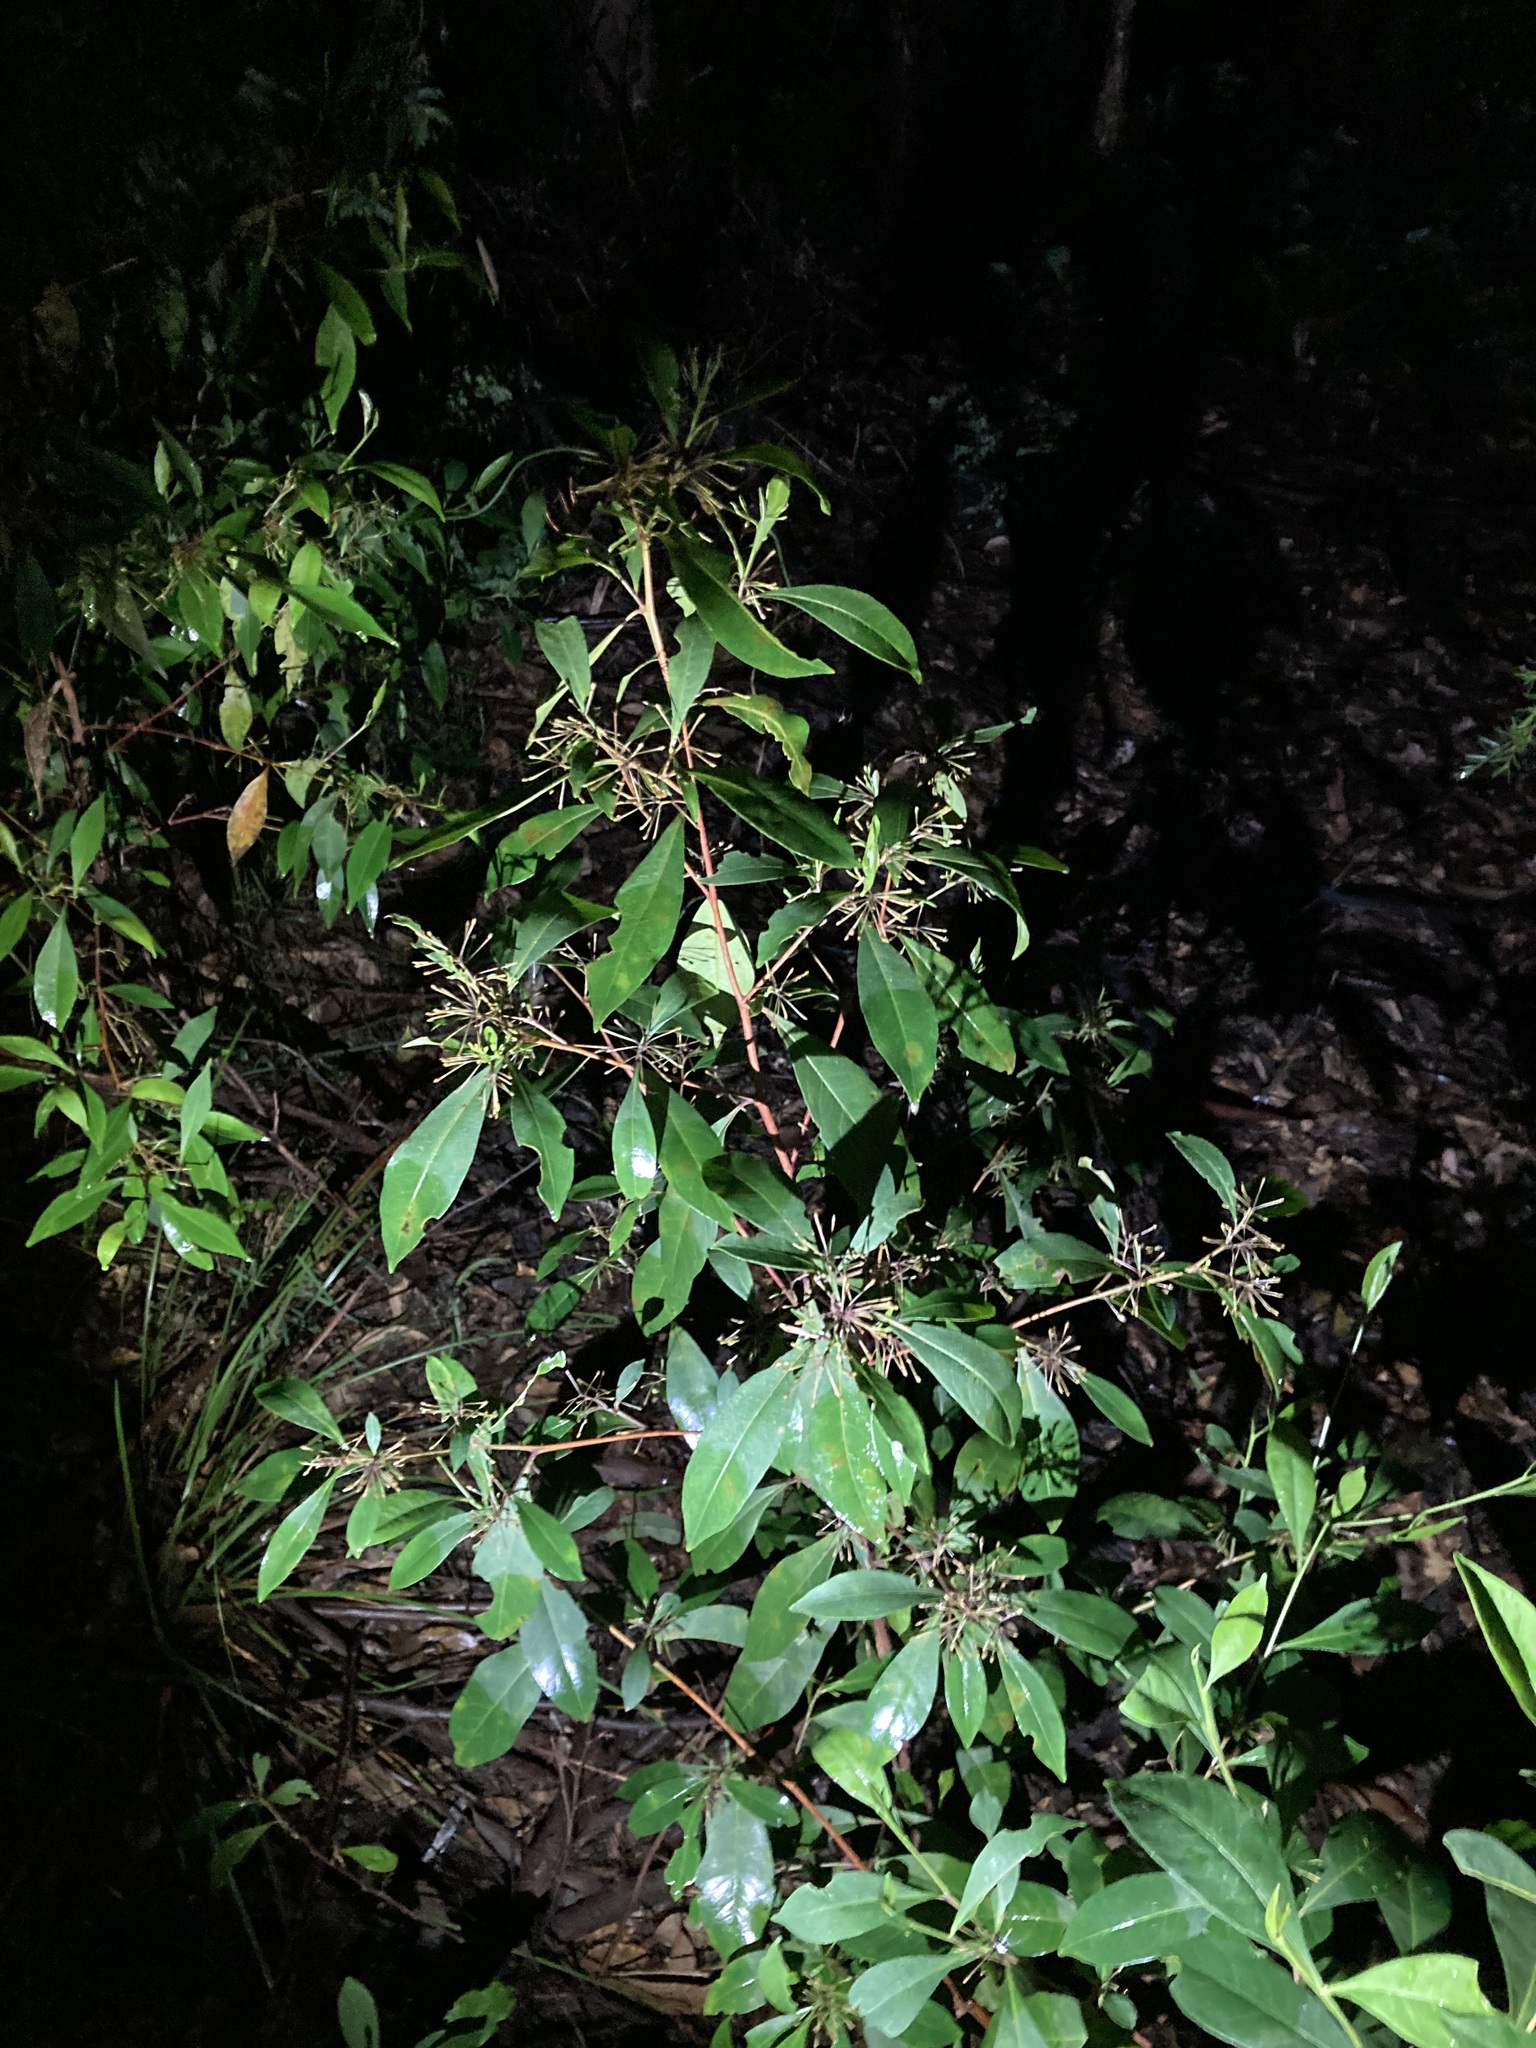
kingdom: Plantae
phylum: Tracheophyta
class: Magnoliopsida
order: Sapindales
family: Sapindaceae
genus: Dodonaea
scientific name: Dodonaea triquetra
